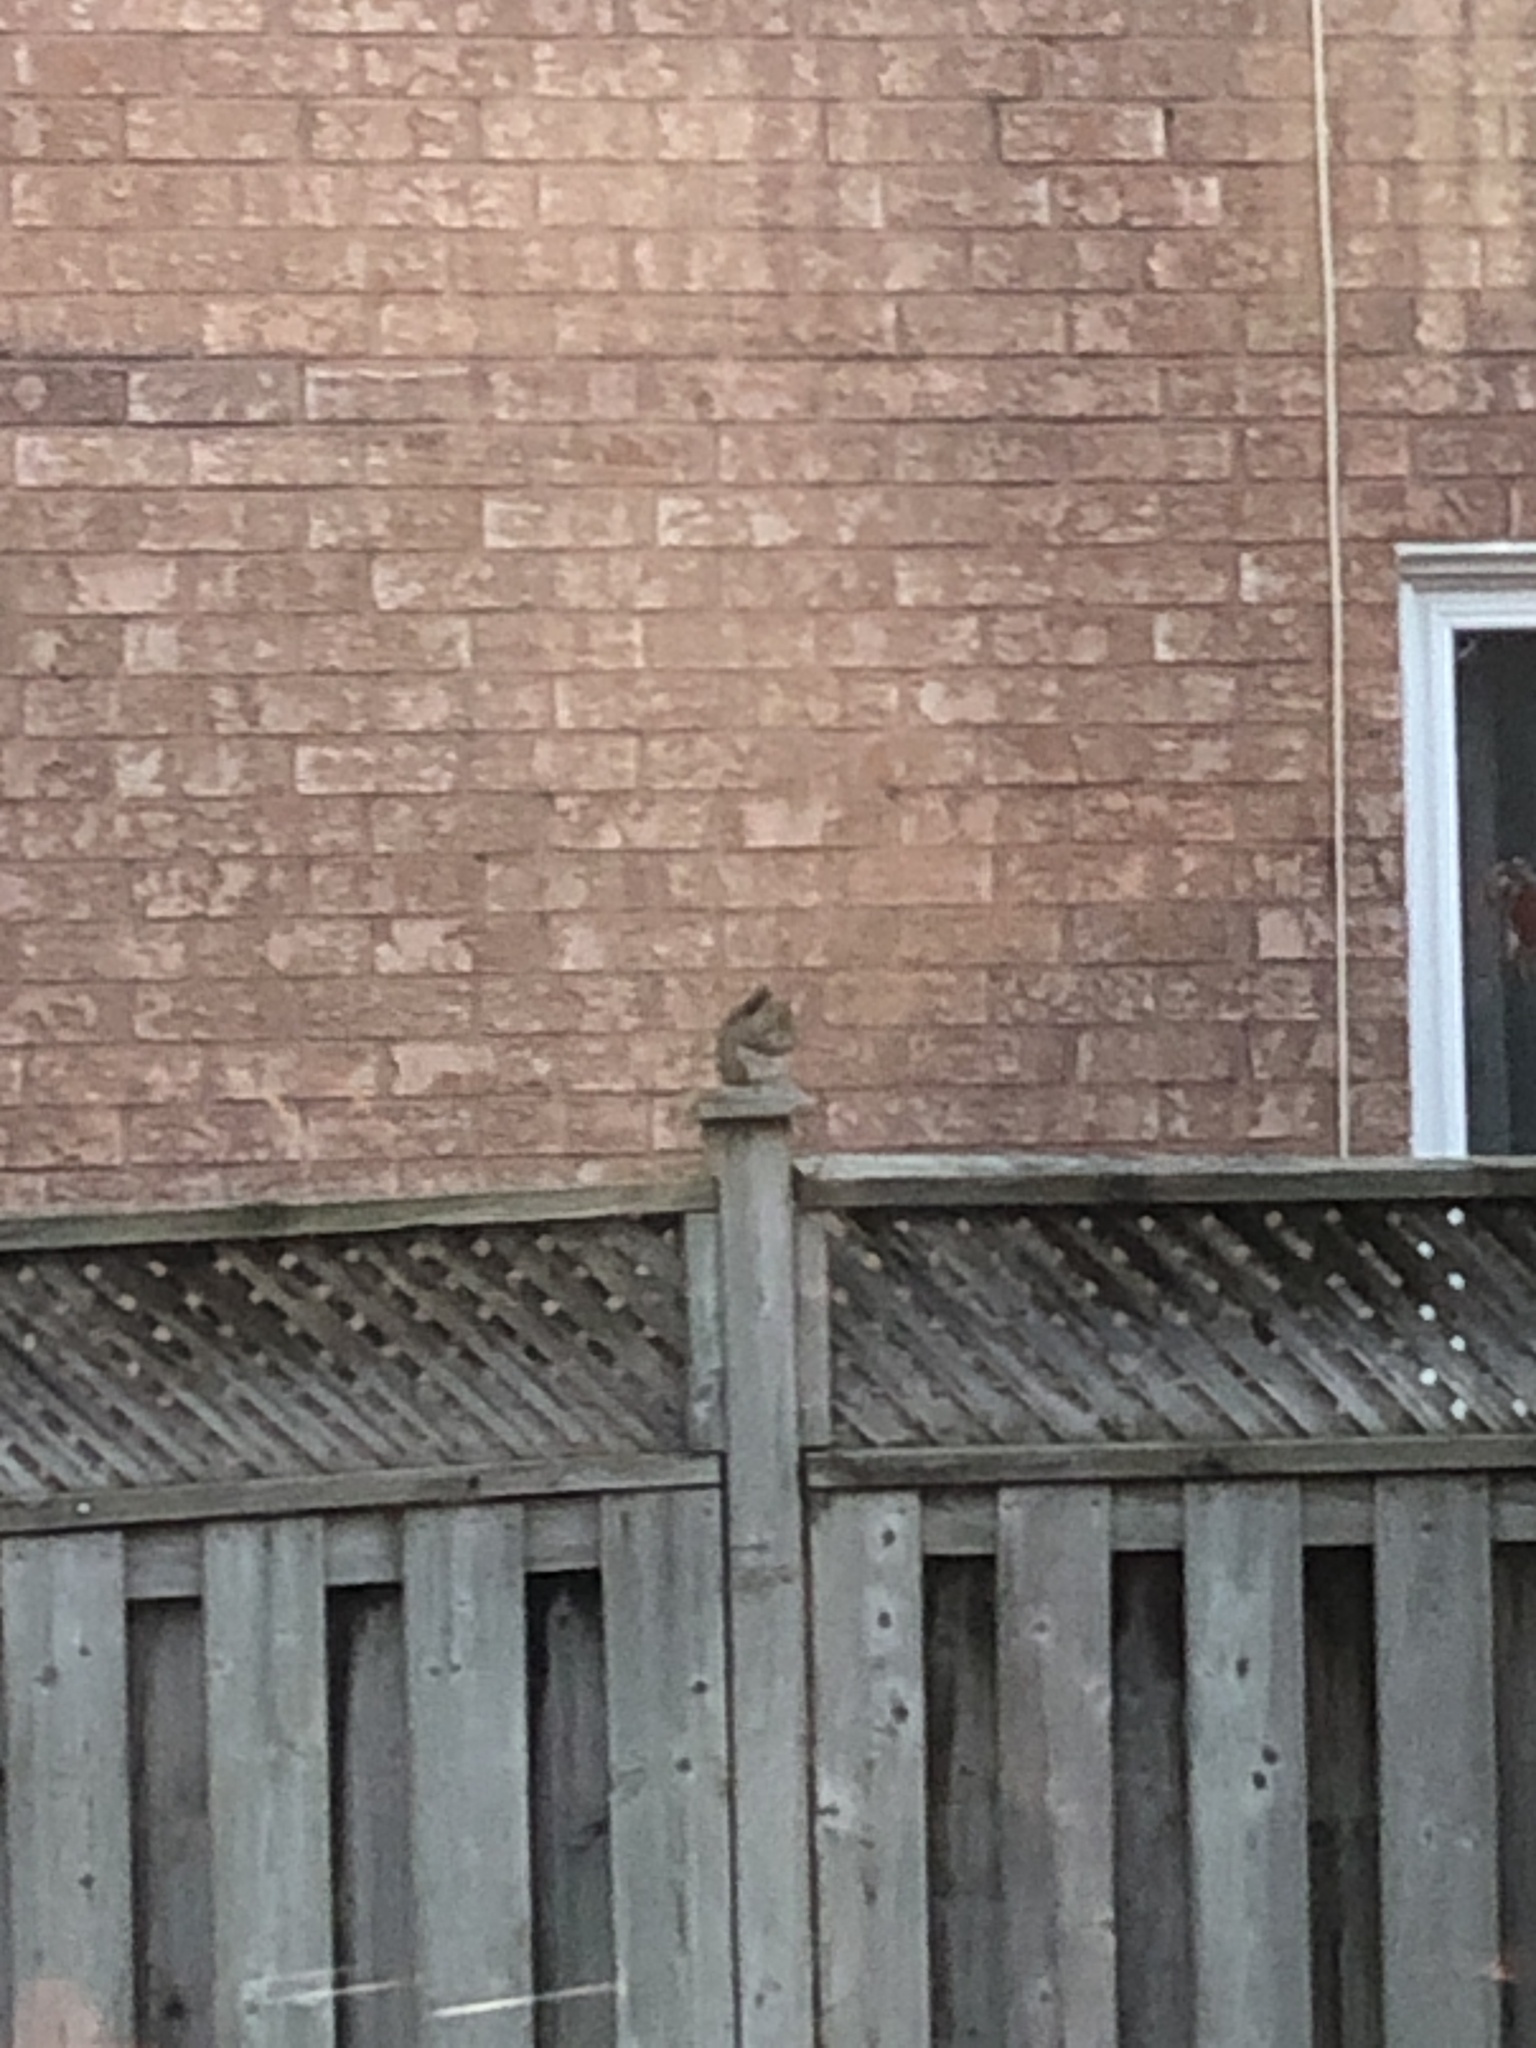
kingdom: Animalia
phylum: Chordata
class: Mammalia
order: Rodentia
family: Sciuridae
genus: Tamiasciurus
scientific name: Tamiasciurus hudsonicus
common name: Red squirrel
